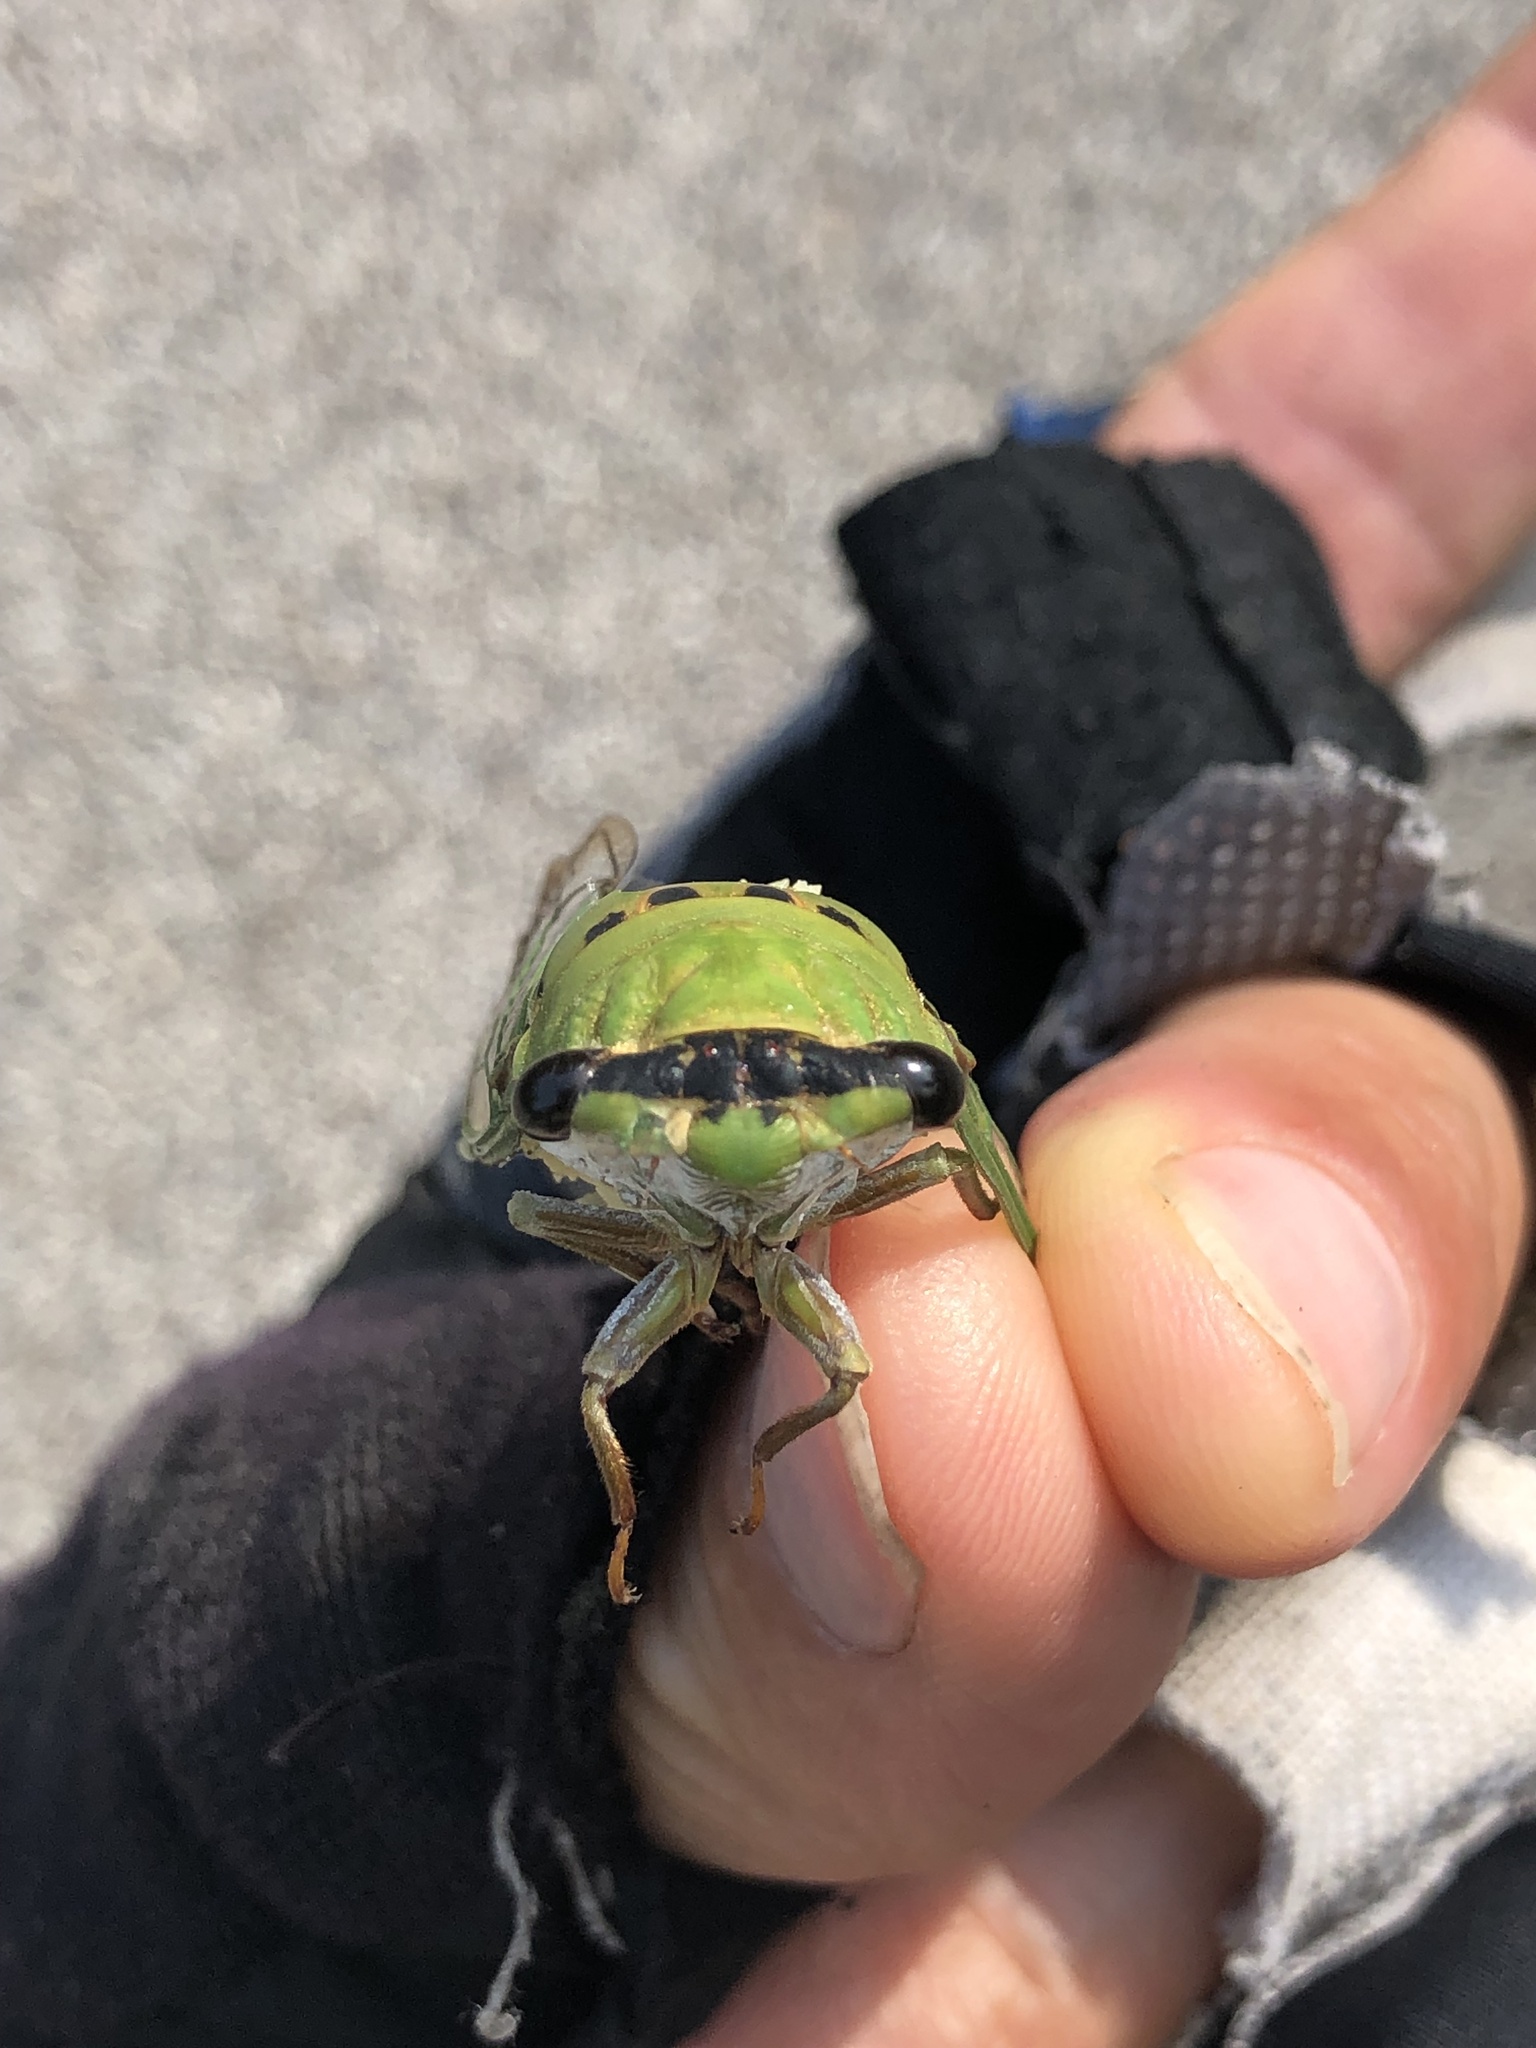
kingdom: Animalia
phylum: Arthropoda
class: Insecta
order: Hemiptera
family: Cicadidae
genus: Neotibicen
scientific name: Neotibicen superbus
